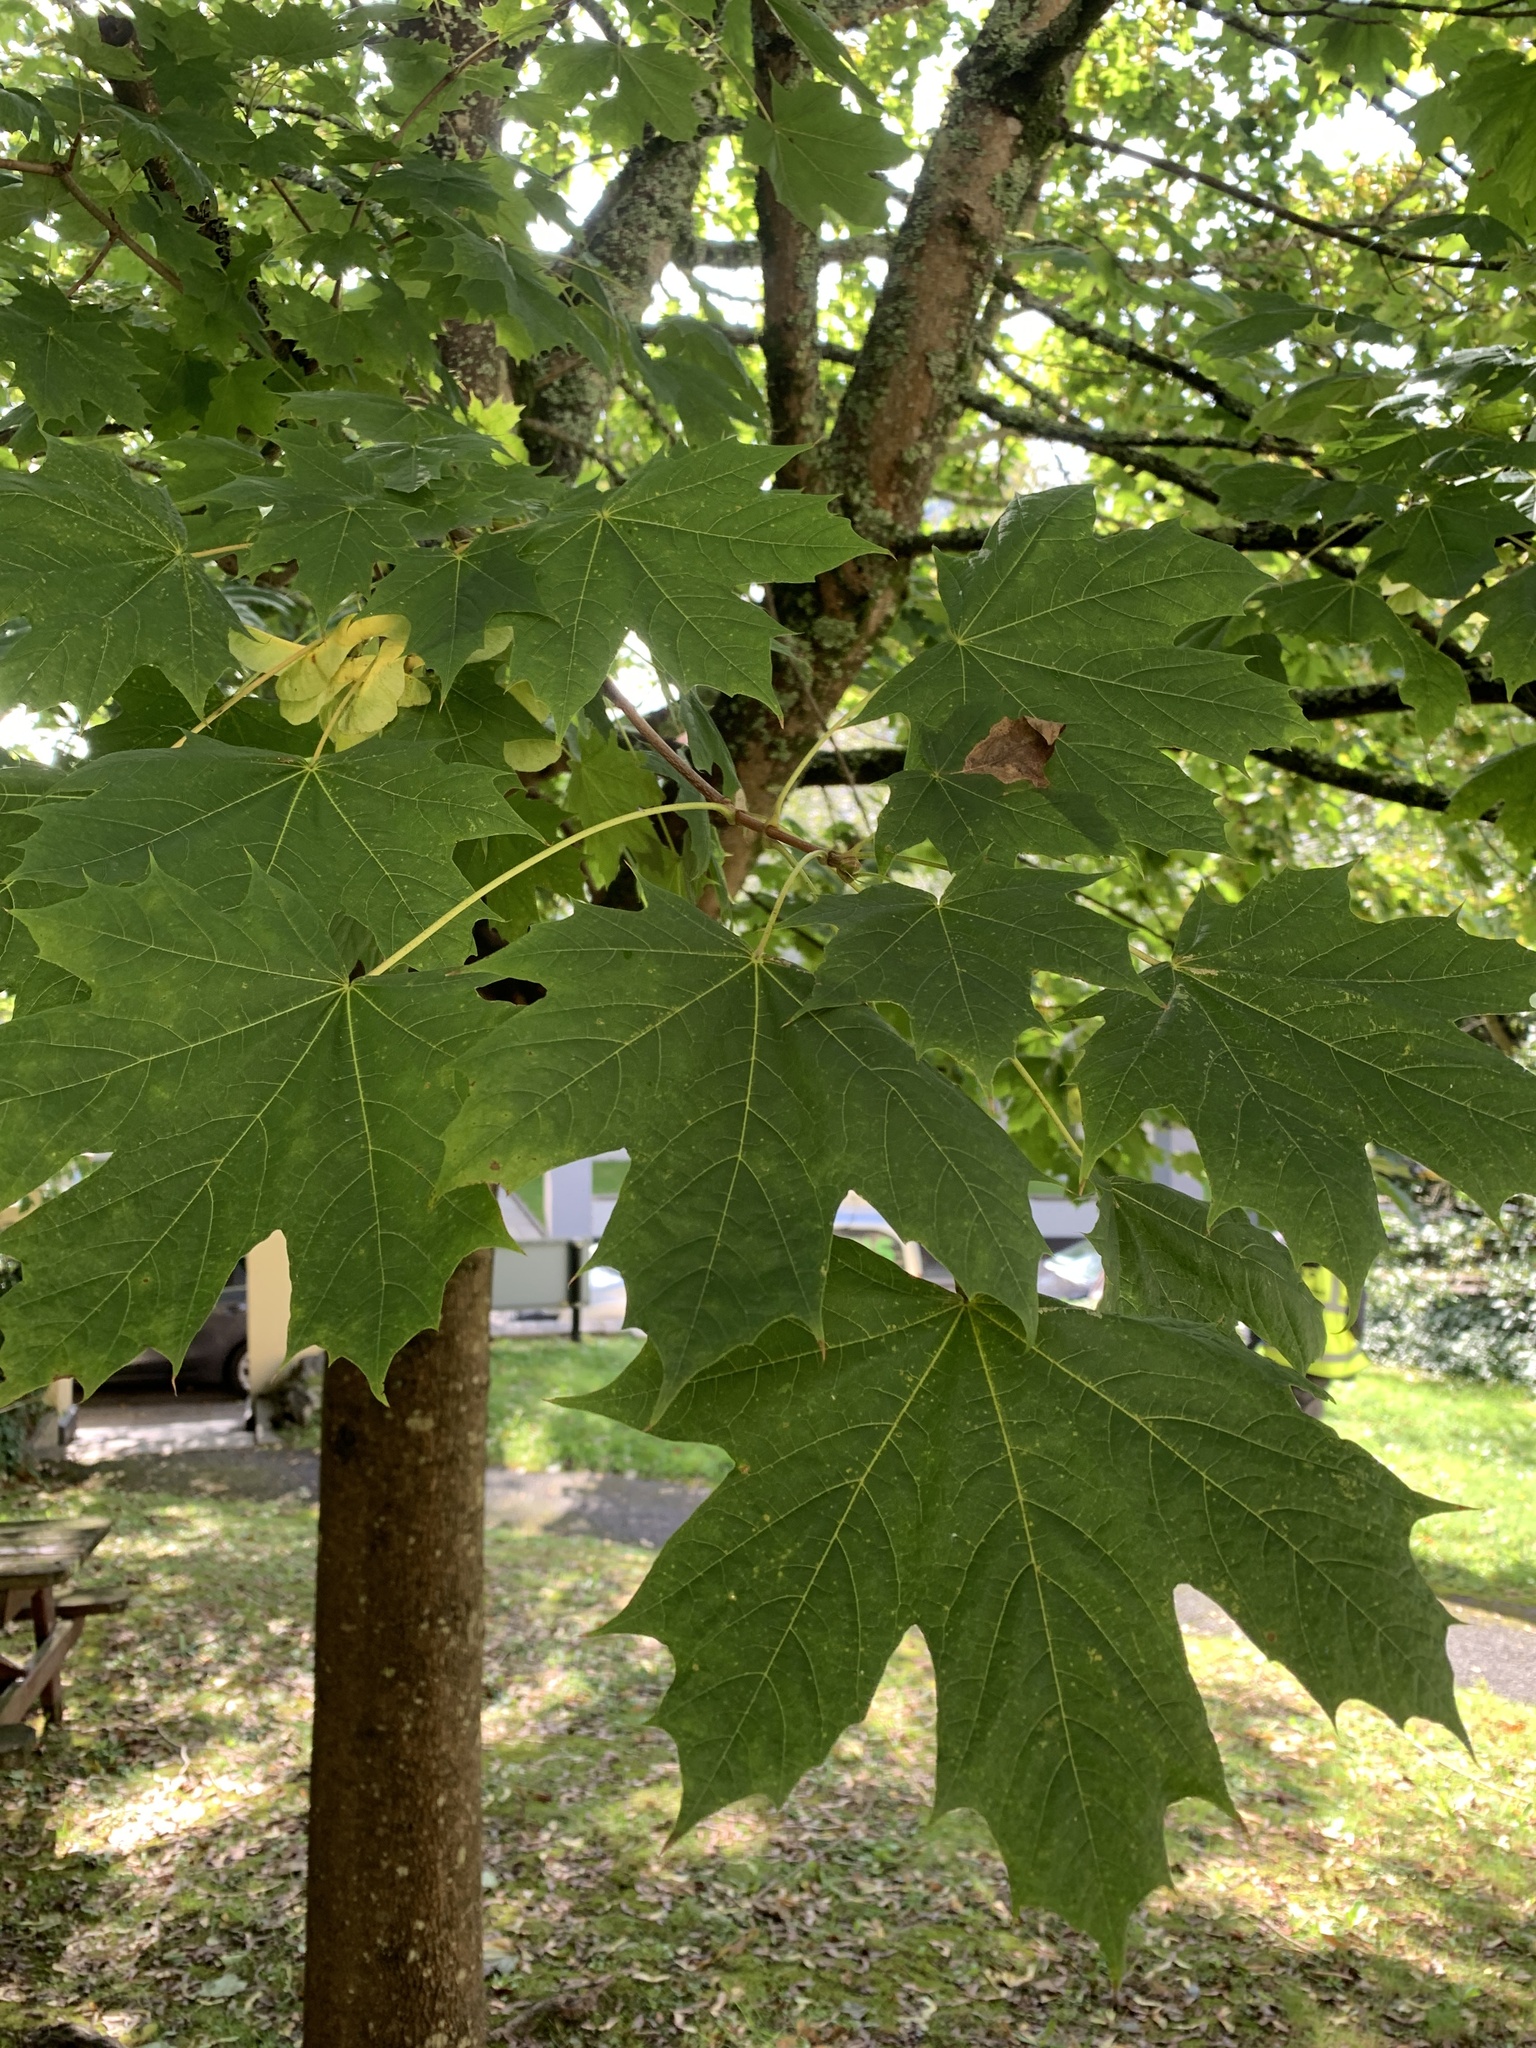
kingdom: Plantae
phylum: Tracheophyta
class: Magnoliopsida
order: Sapindales
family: Sapindaceae
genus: Acer
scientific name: Acer platanoides
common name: Norway maple
